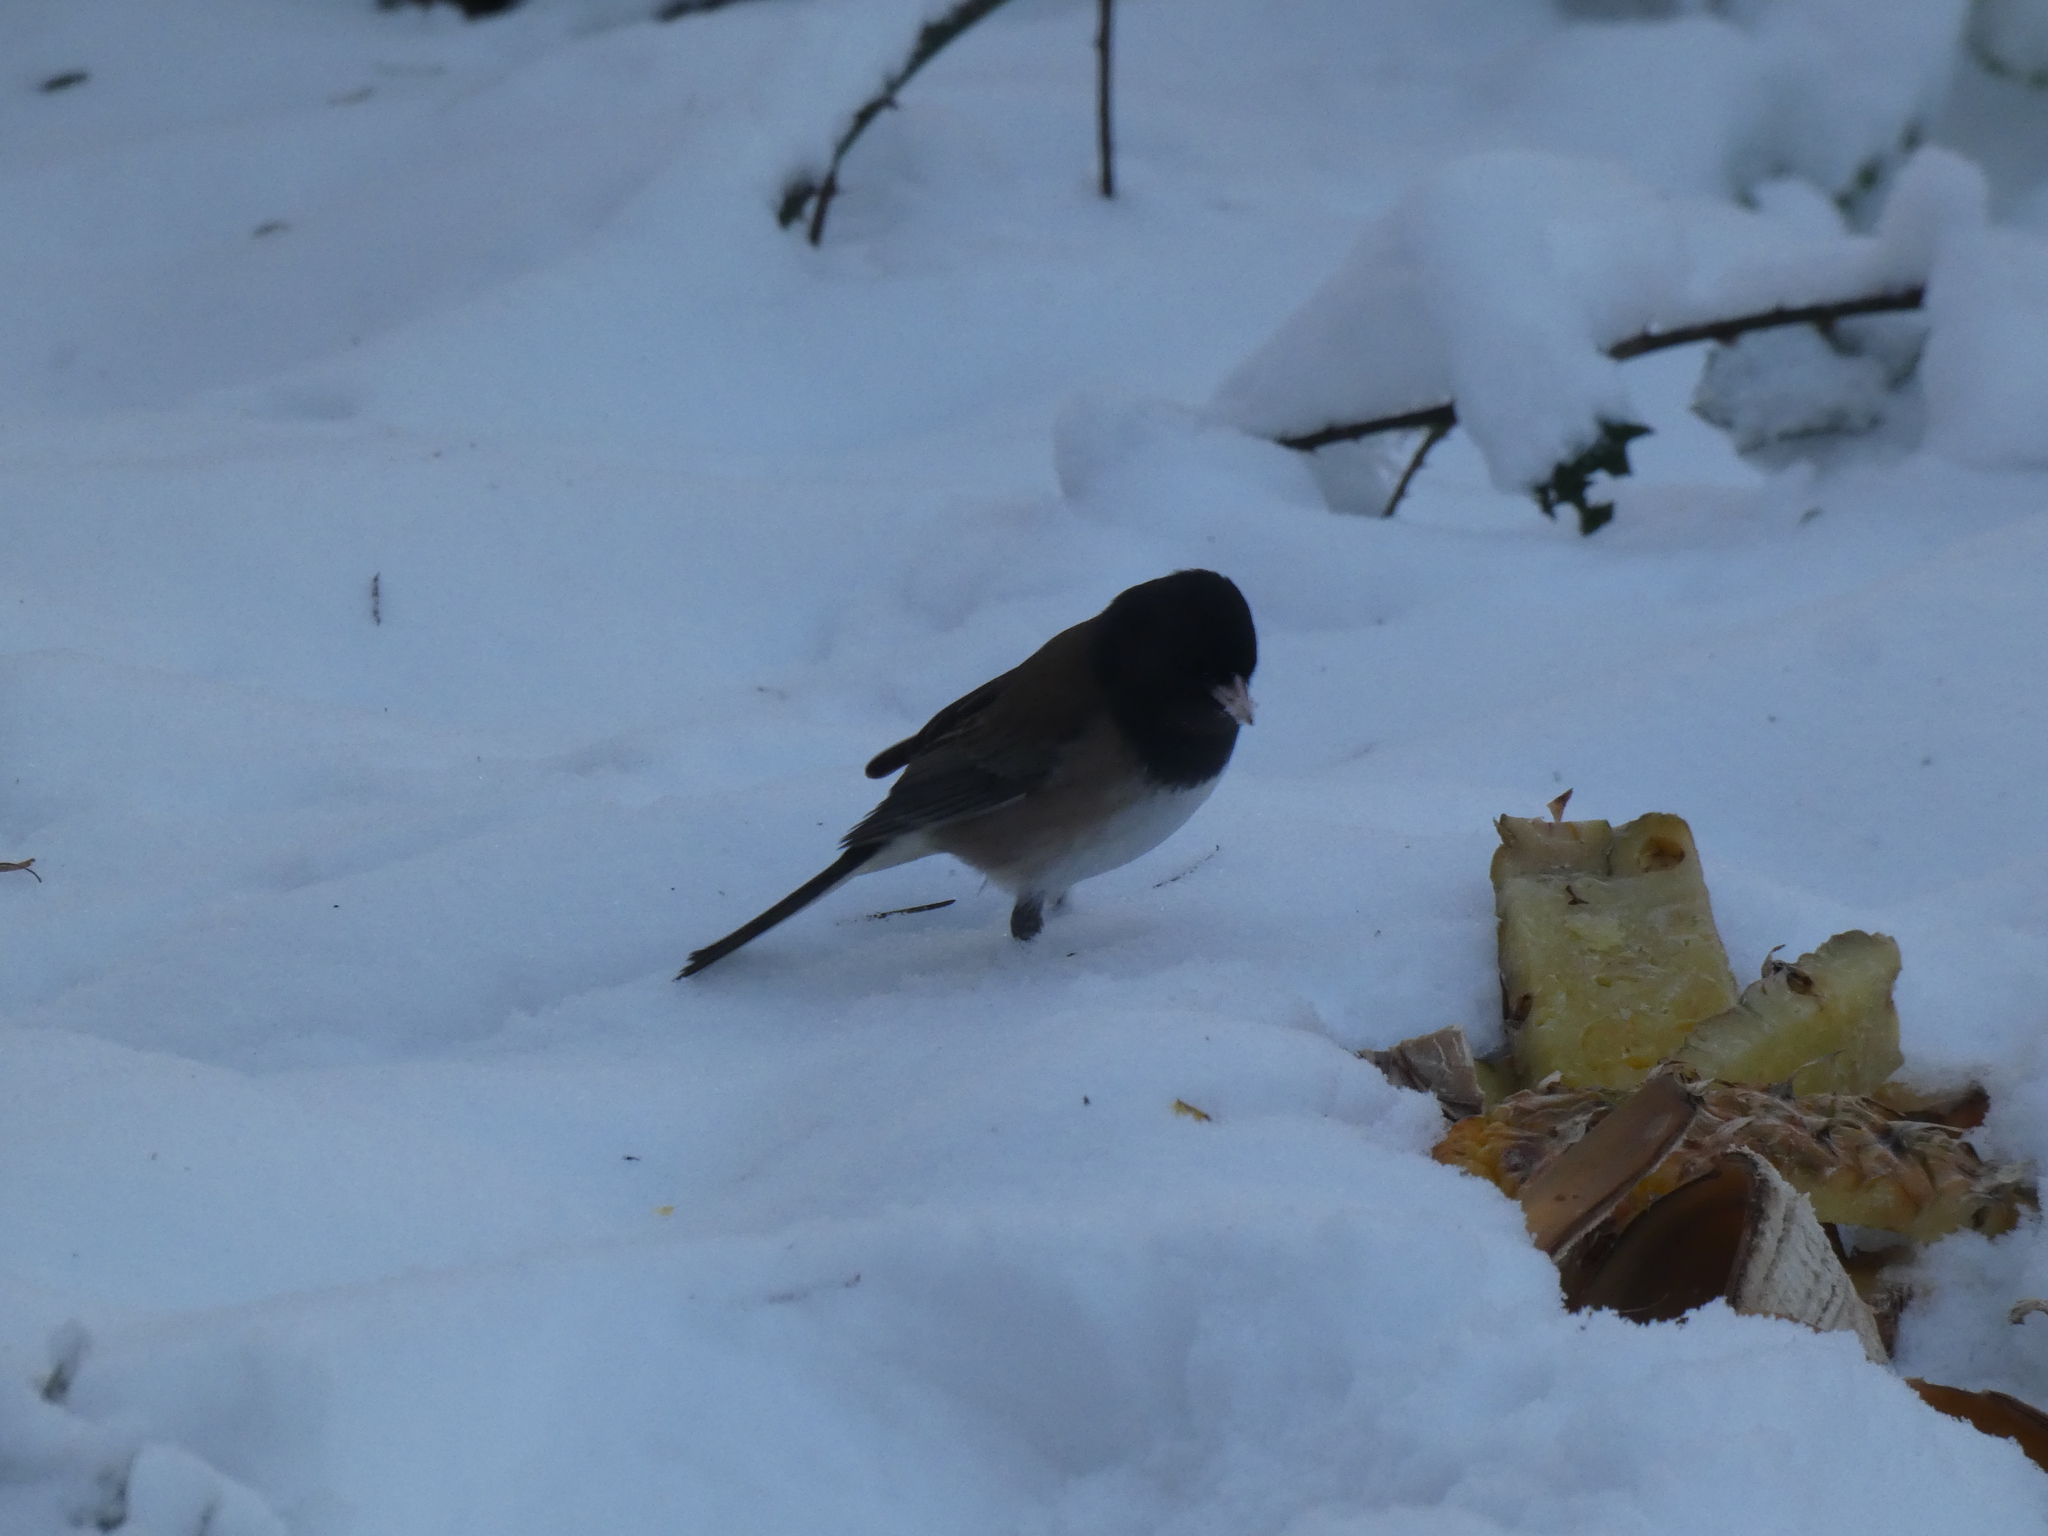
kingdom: Animalia
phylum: Chordata
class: Aves
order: Passeriformes
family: Passerellidae
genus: Junco
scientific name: Junco hyemalis
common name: Dark-eyed junco
